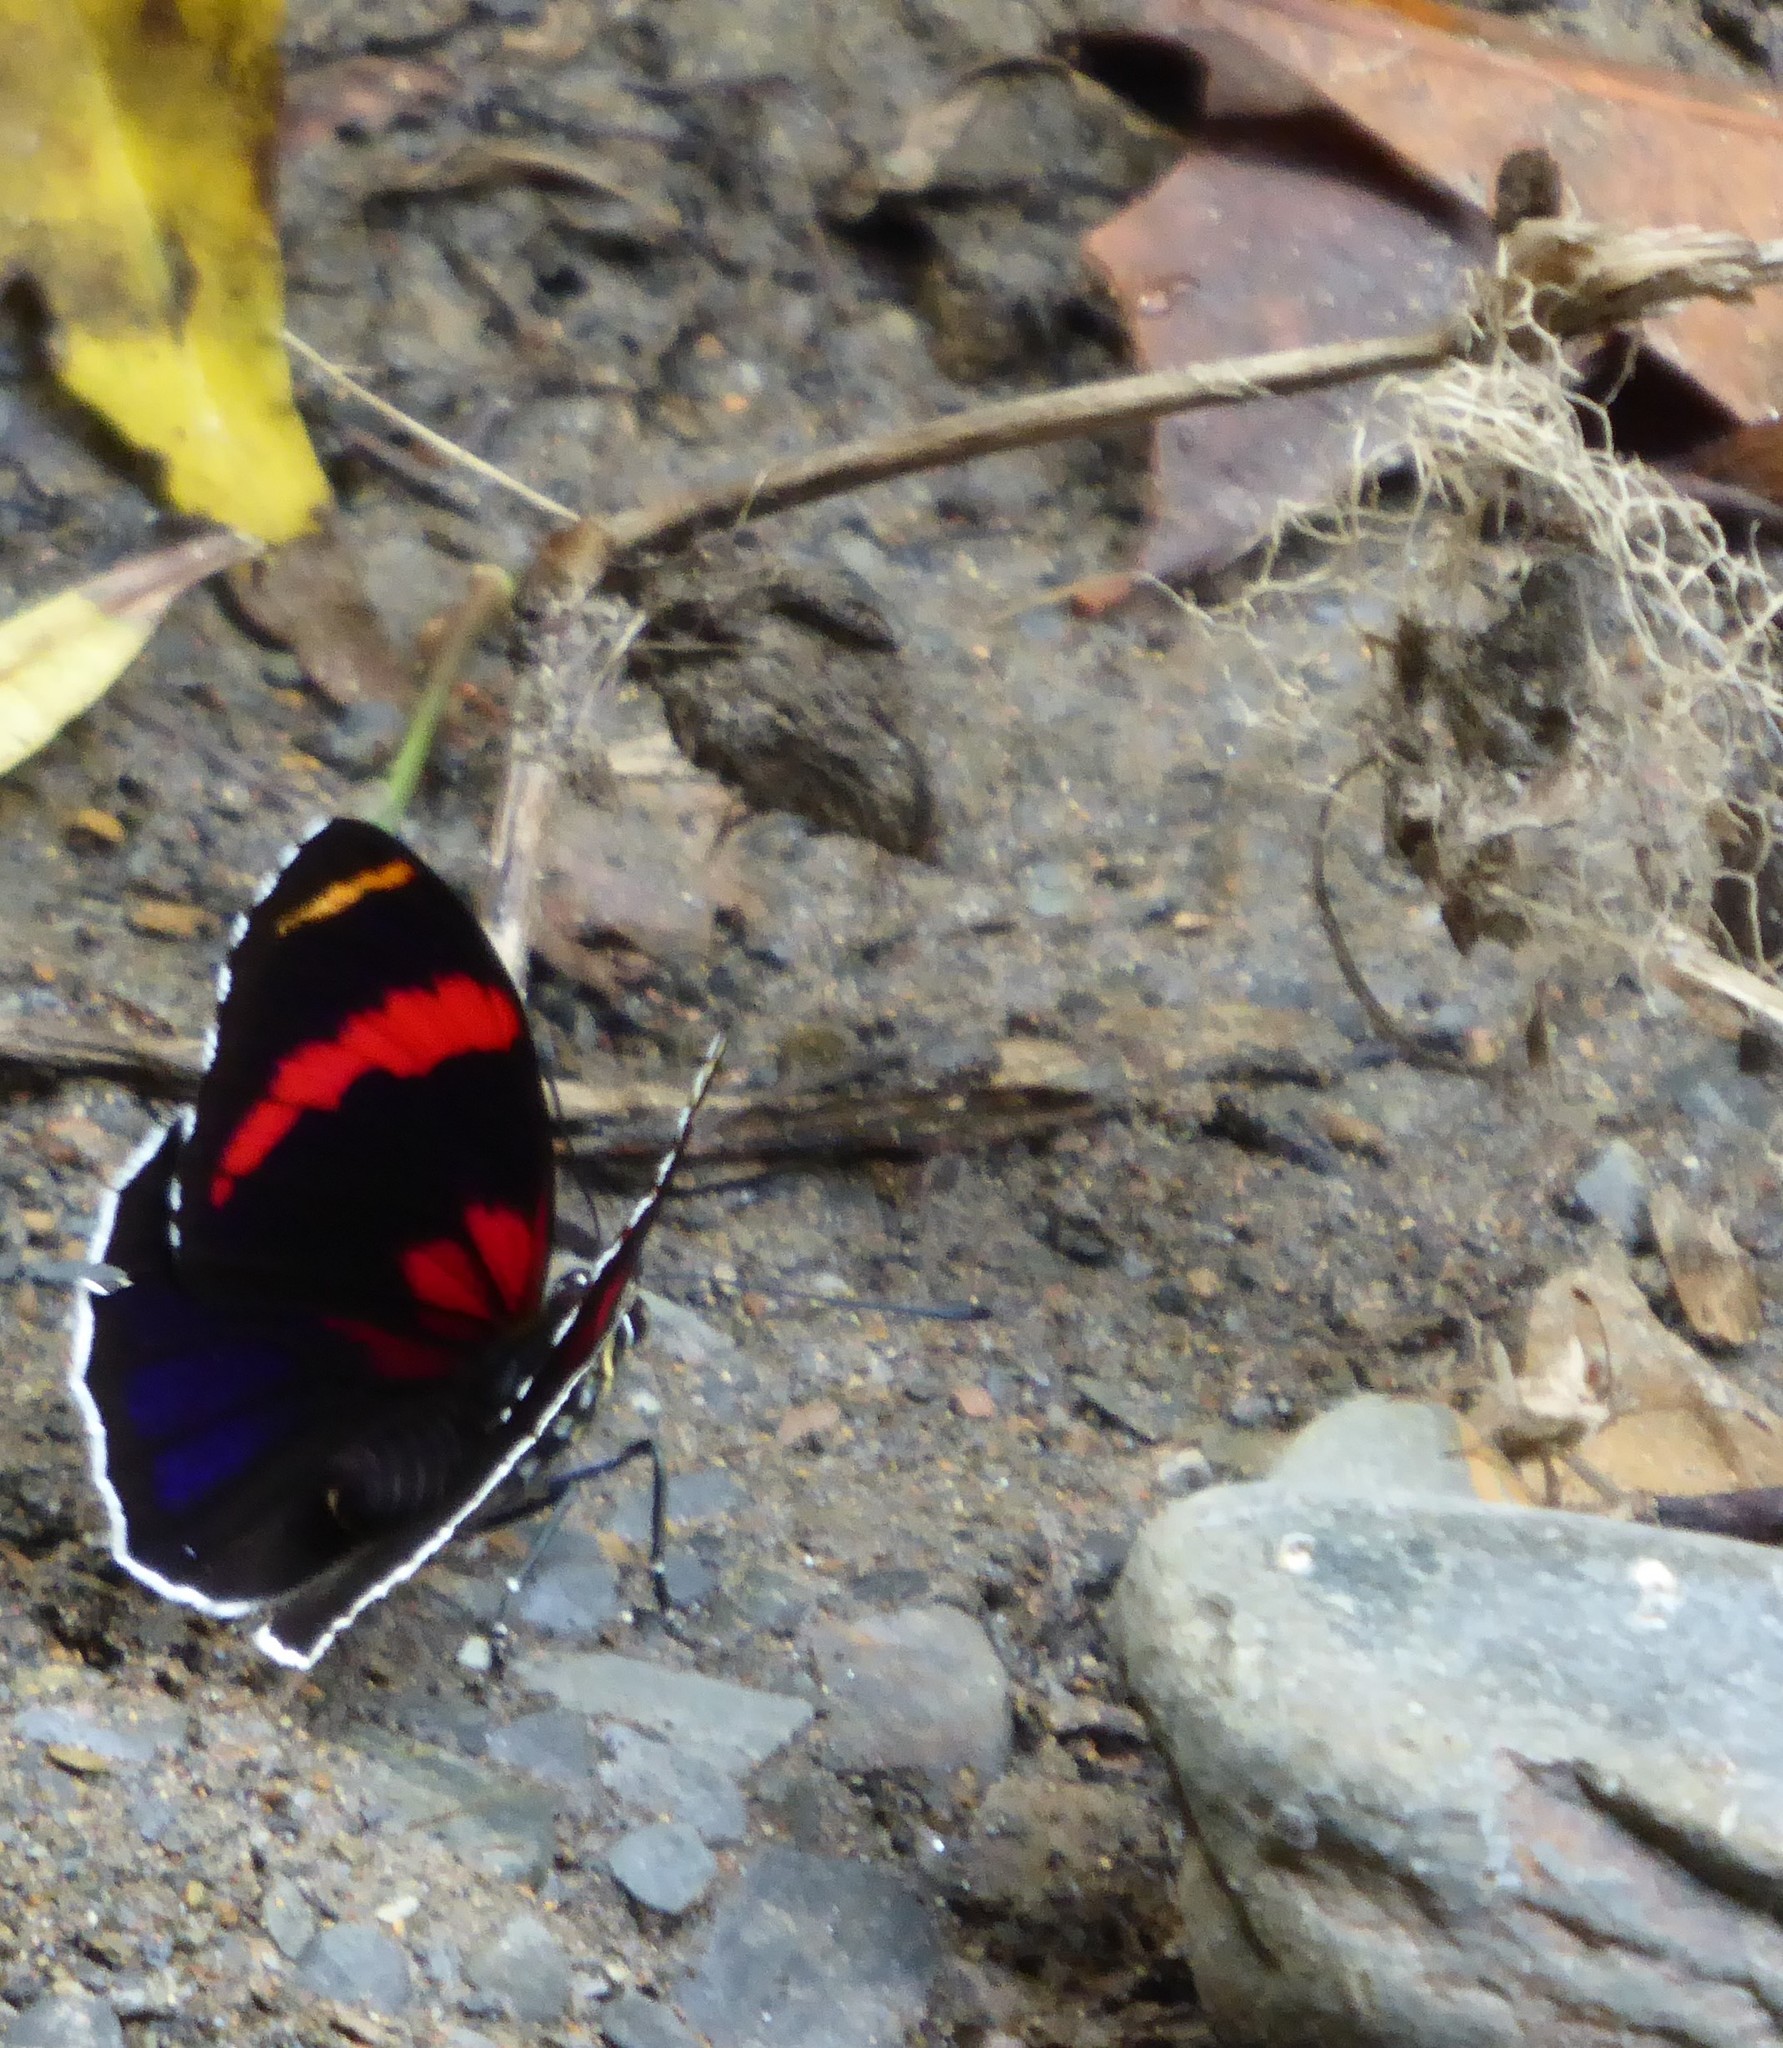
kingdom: Animalia
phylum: Arthropoda
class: Insecta
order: Lepidoptera
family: Nymphalidae
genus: Catagramma
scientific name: Catagramma Callicore sorana
